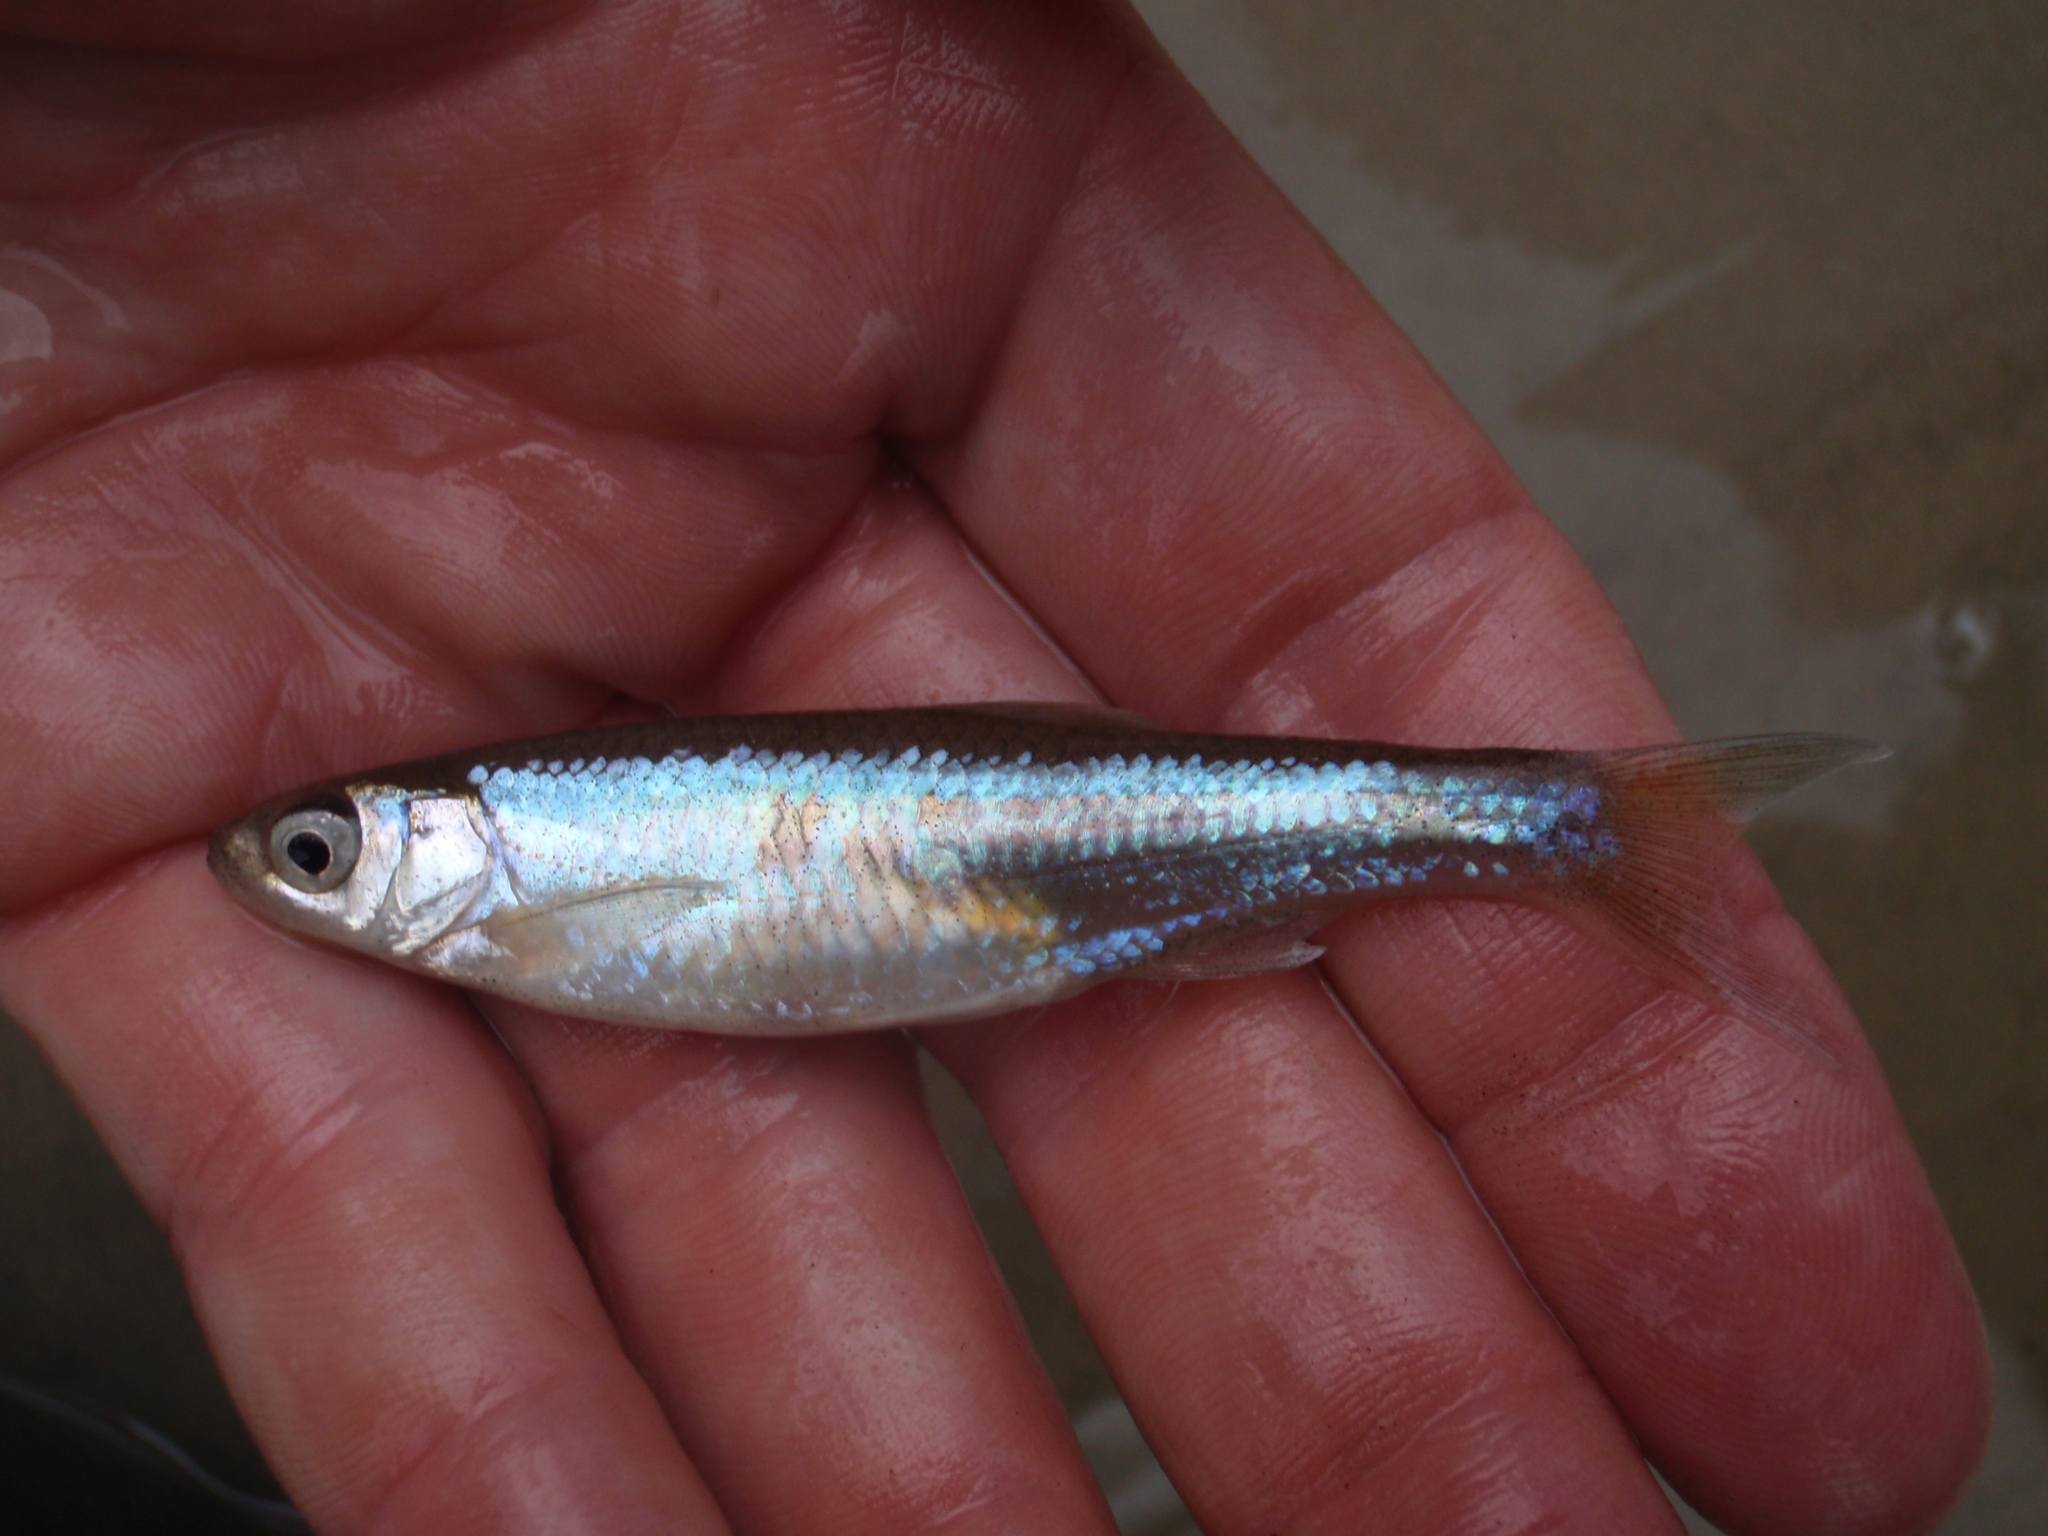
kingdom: Animalia
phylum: Chordata
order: Cypriniformes
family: Cyprinidae
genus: Notropis
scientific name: Notropis atherinoides
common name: Emerald shiner
